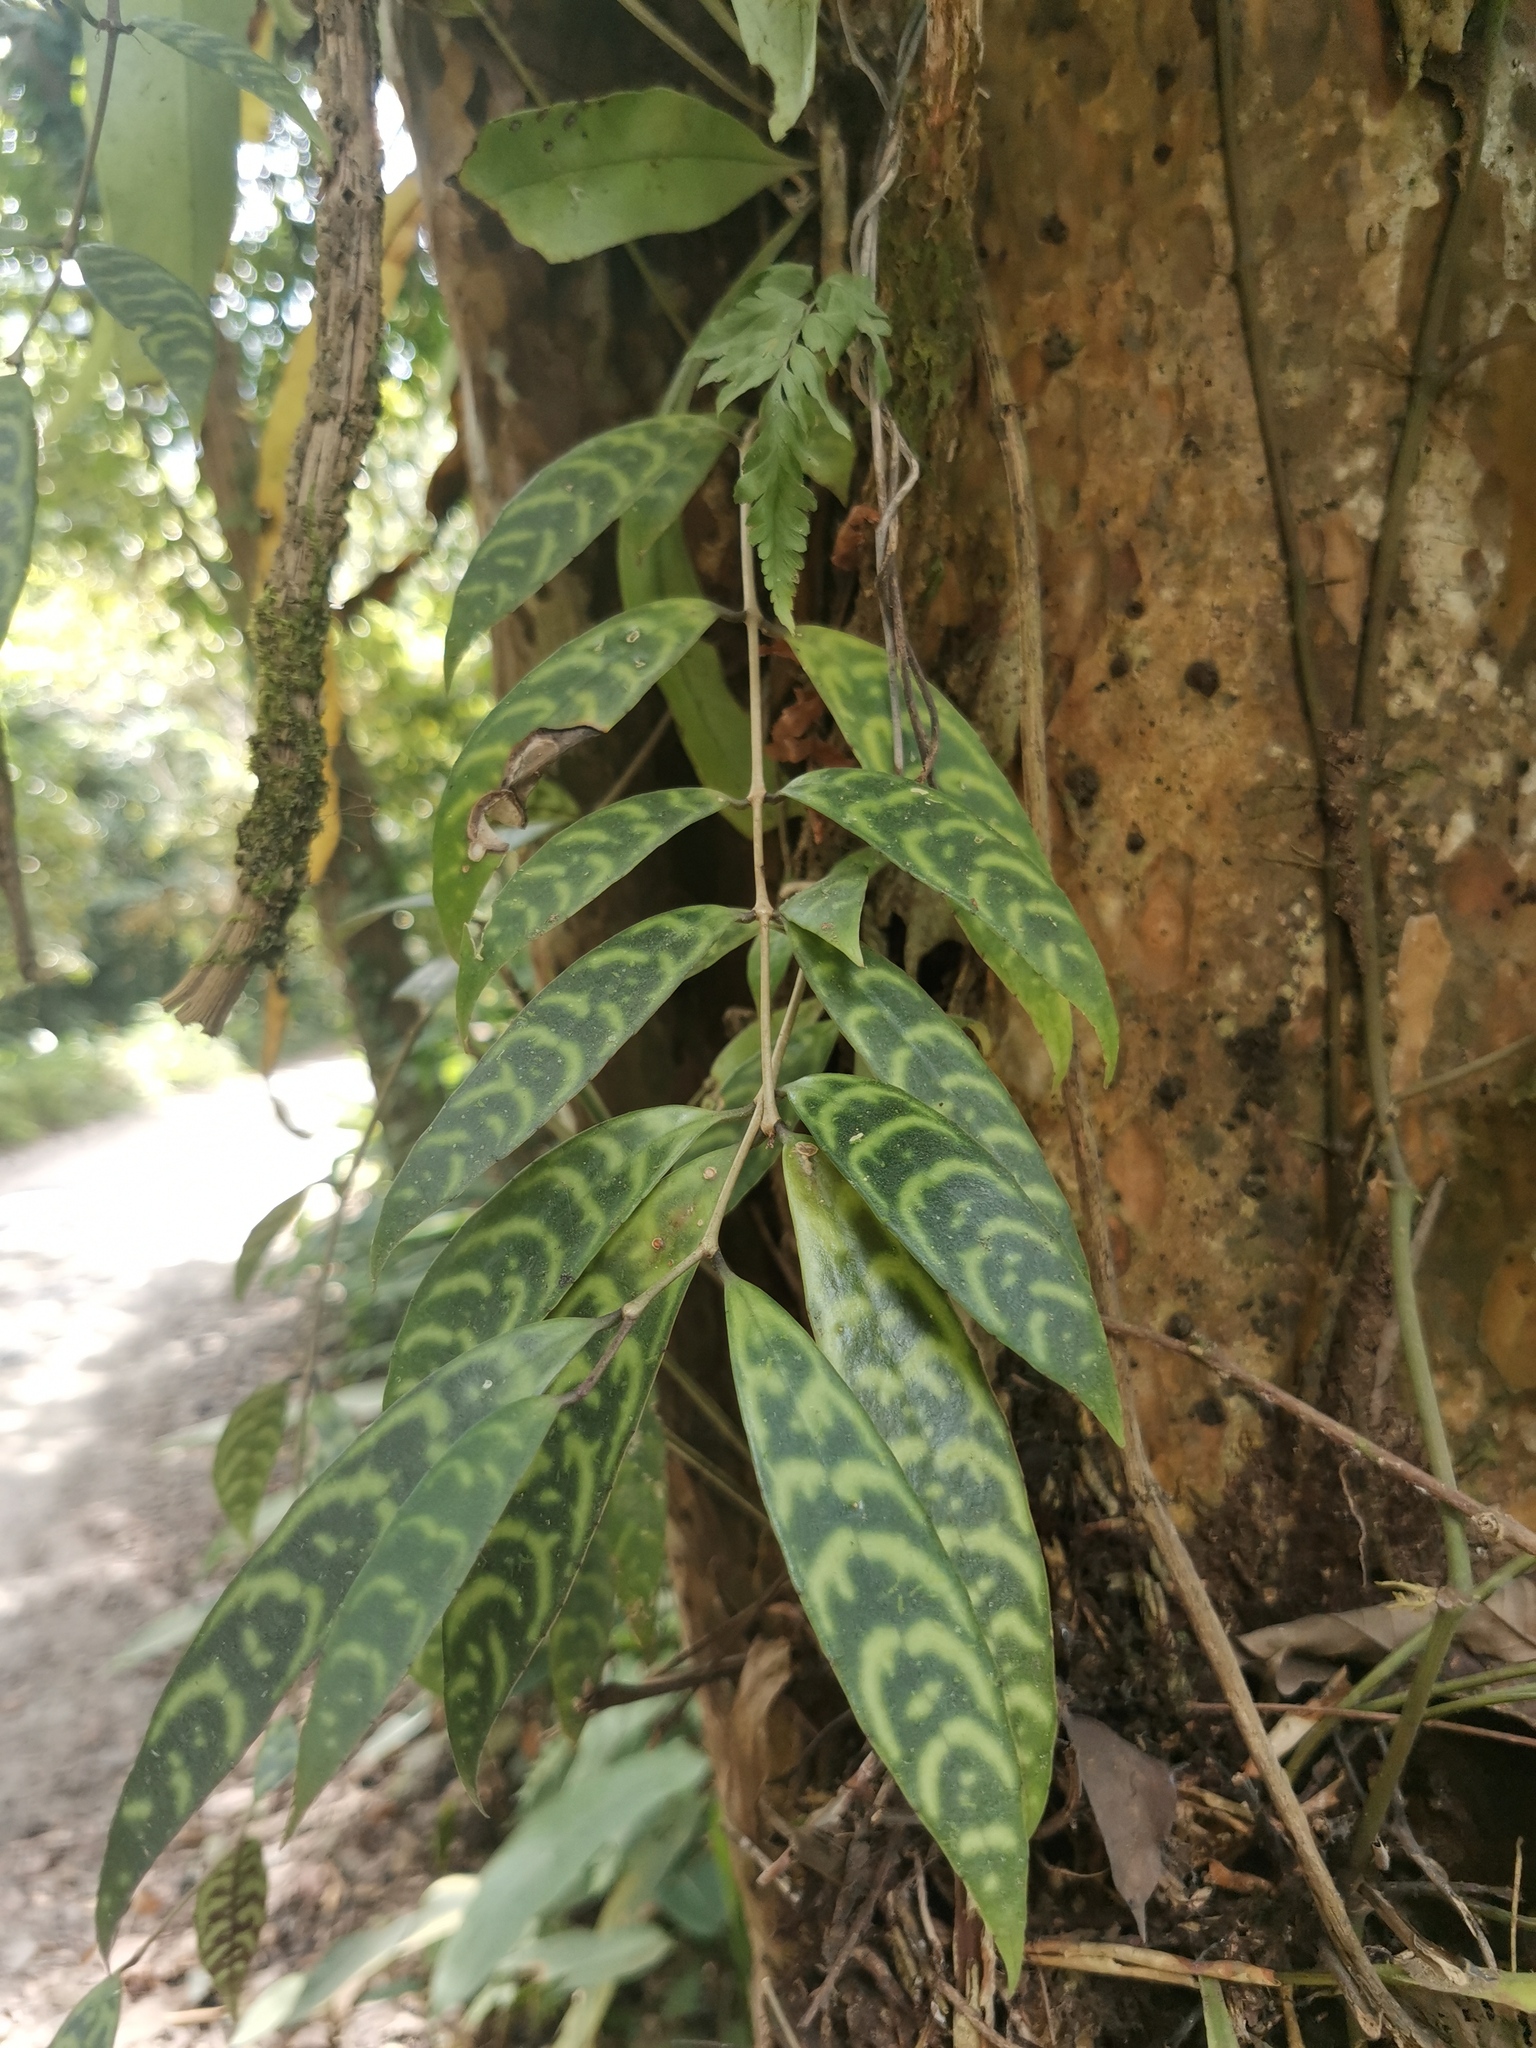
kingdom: Plantae
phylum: Tracheophyta
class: Magnoliopsida
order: Lamiales
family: Gesneriaceae
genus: Aeschynanthus
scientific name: Aeschynanthus longicaulis
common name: Zebra basketvine
